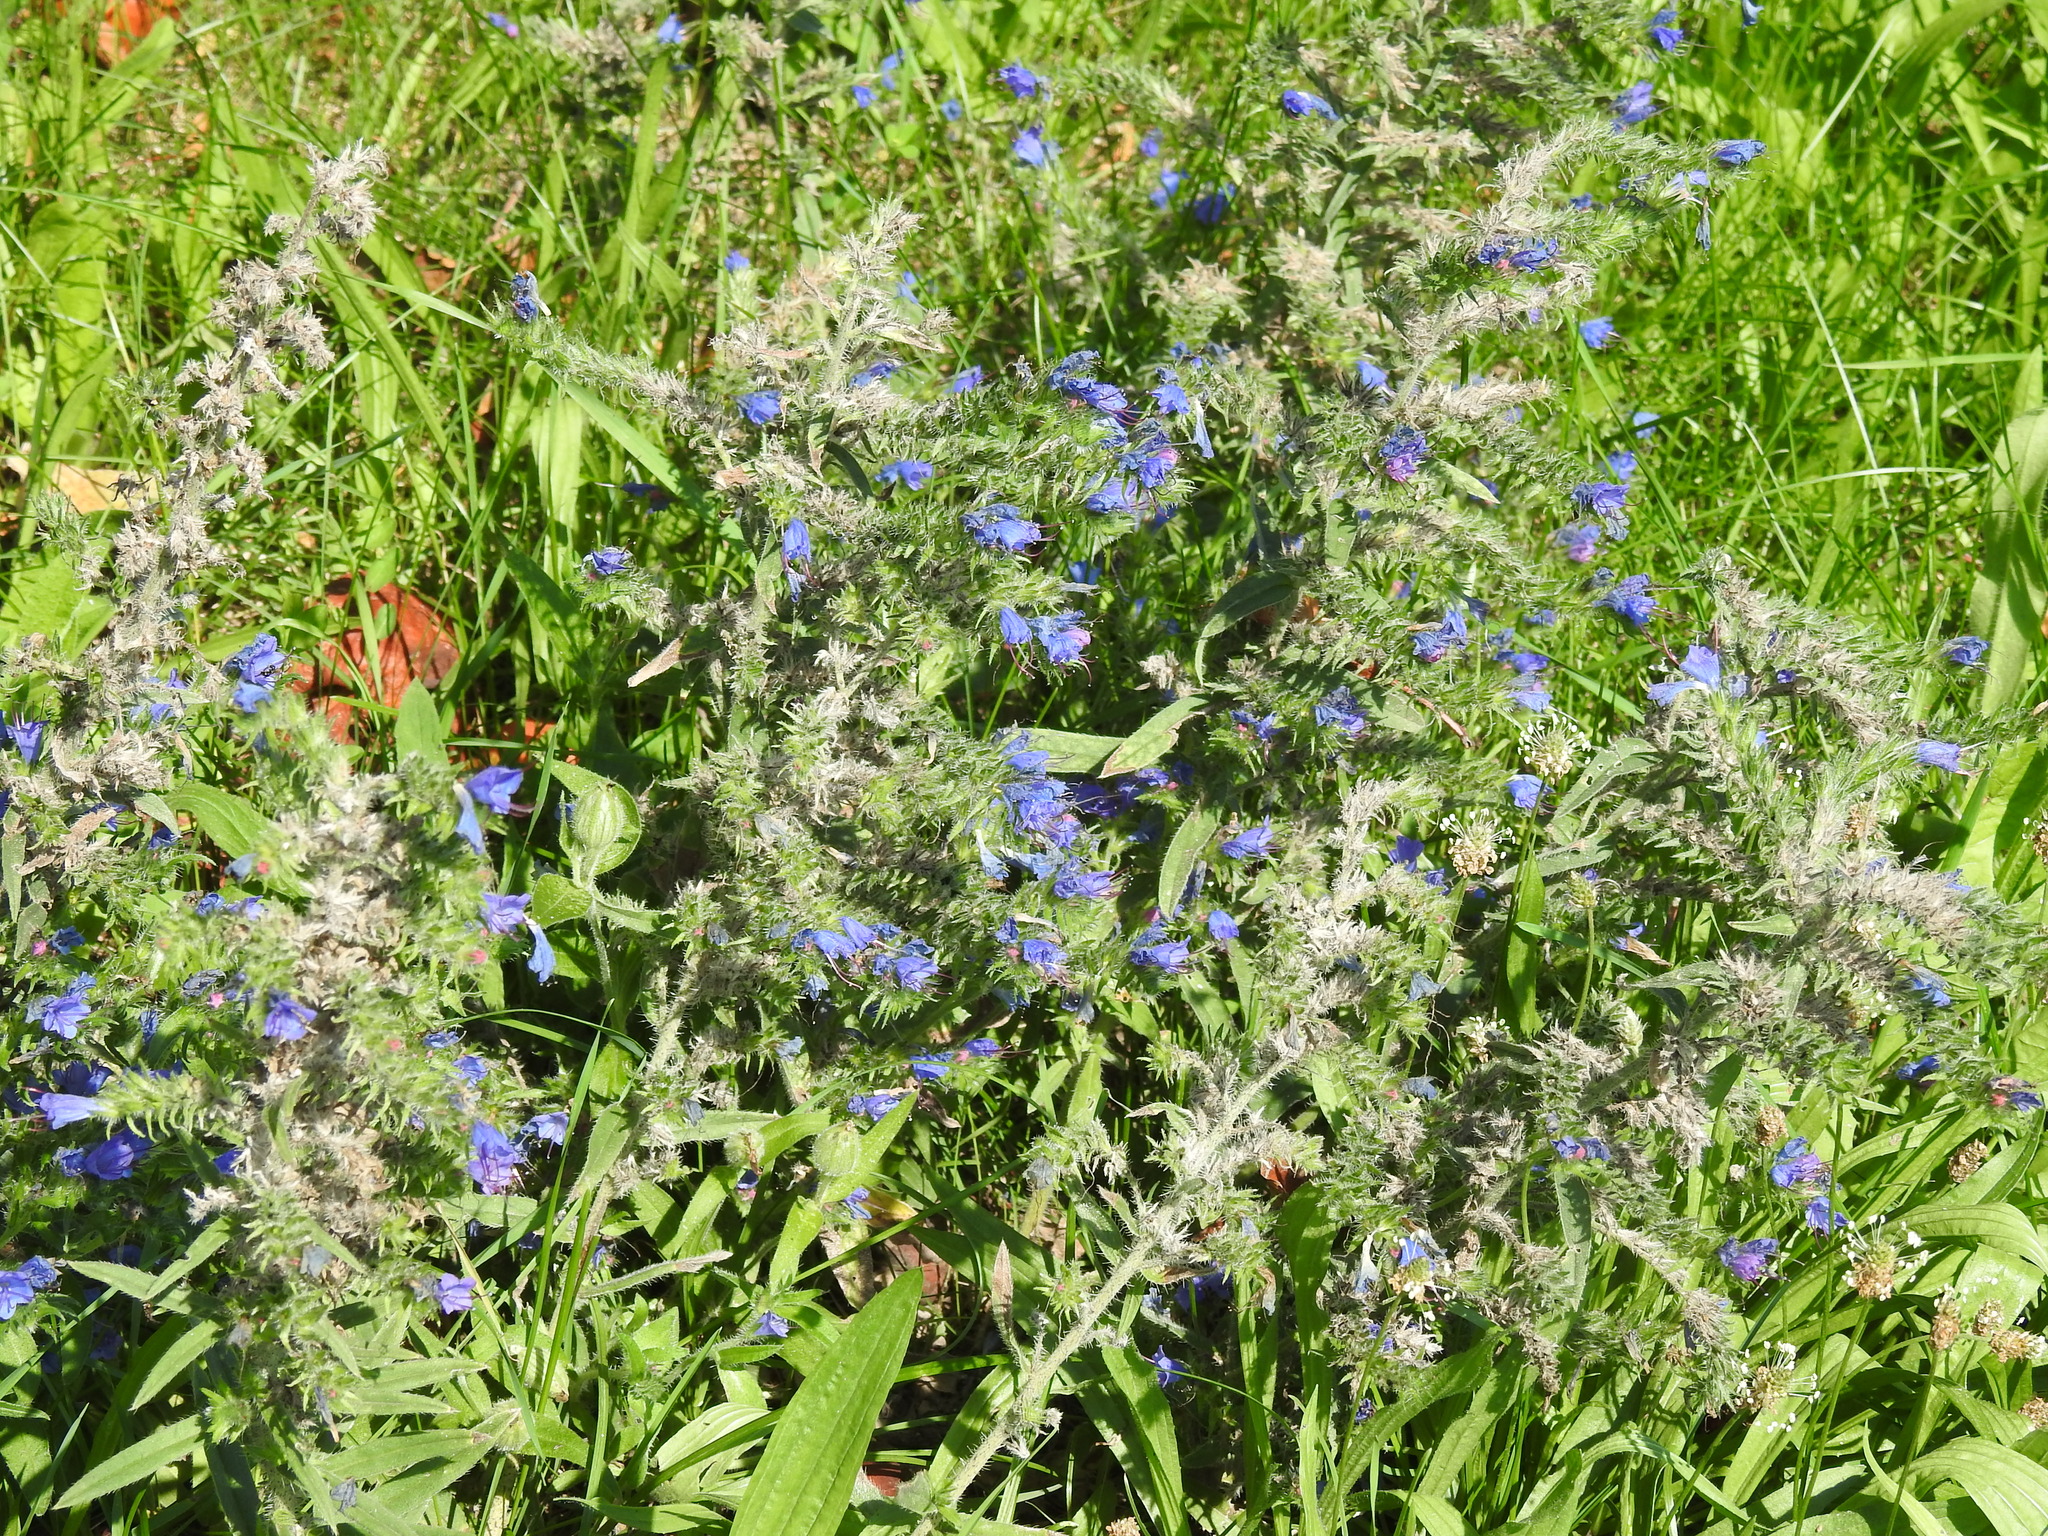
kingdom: Plantae
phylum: Tracheophyta
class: Magnoliopsida
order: Boraginales
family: Boraginaceae
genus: Echium
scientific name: Echium vulgare
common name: Common viper's bugloss
